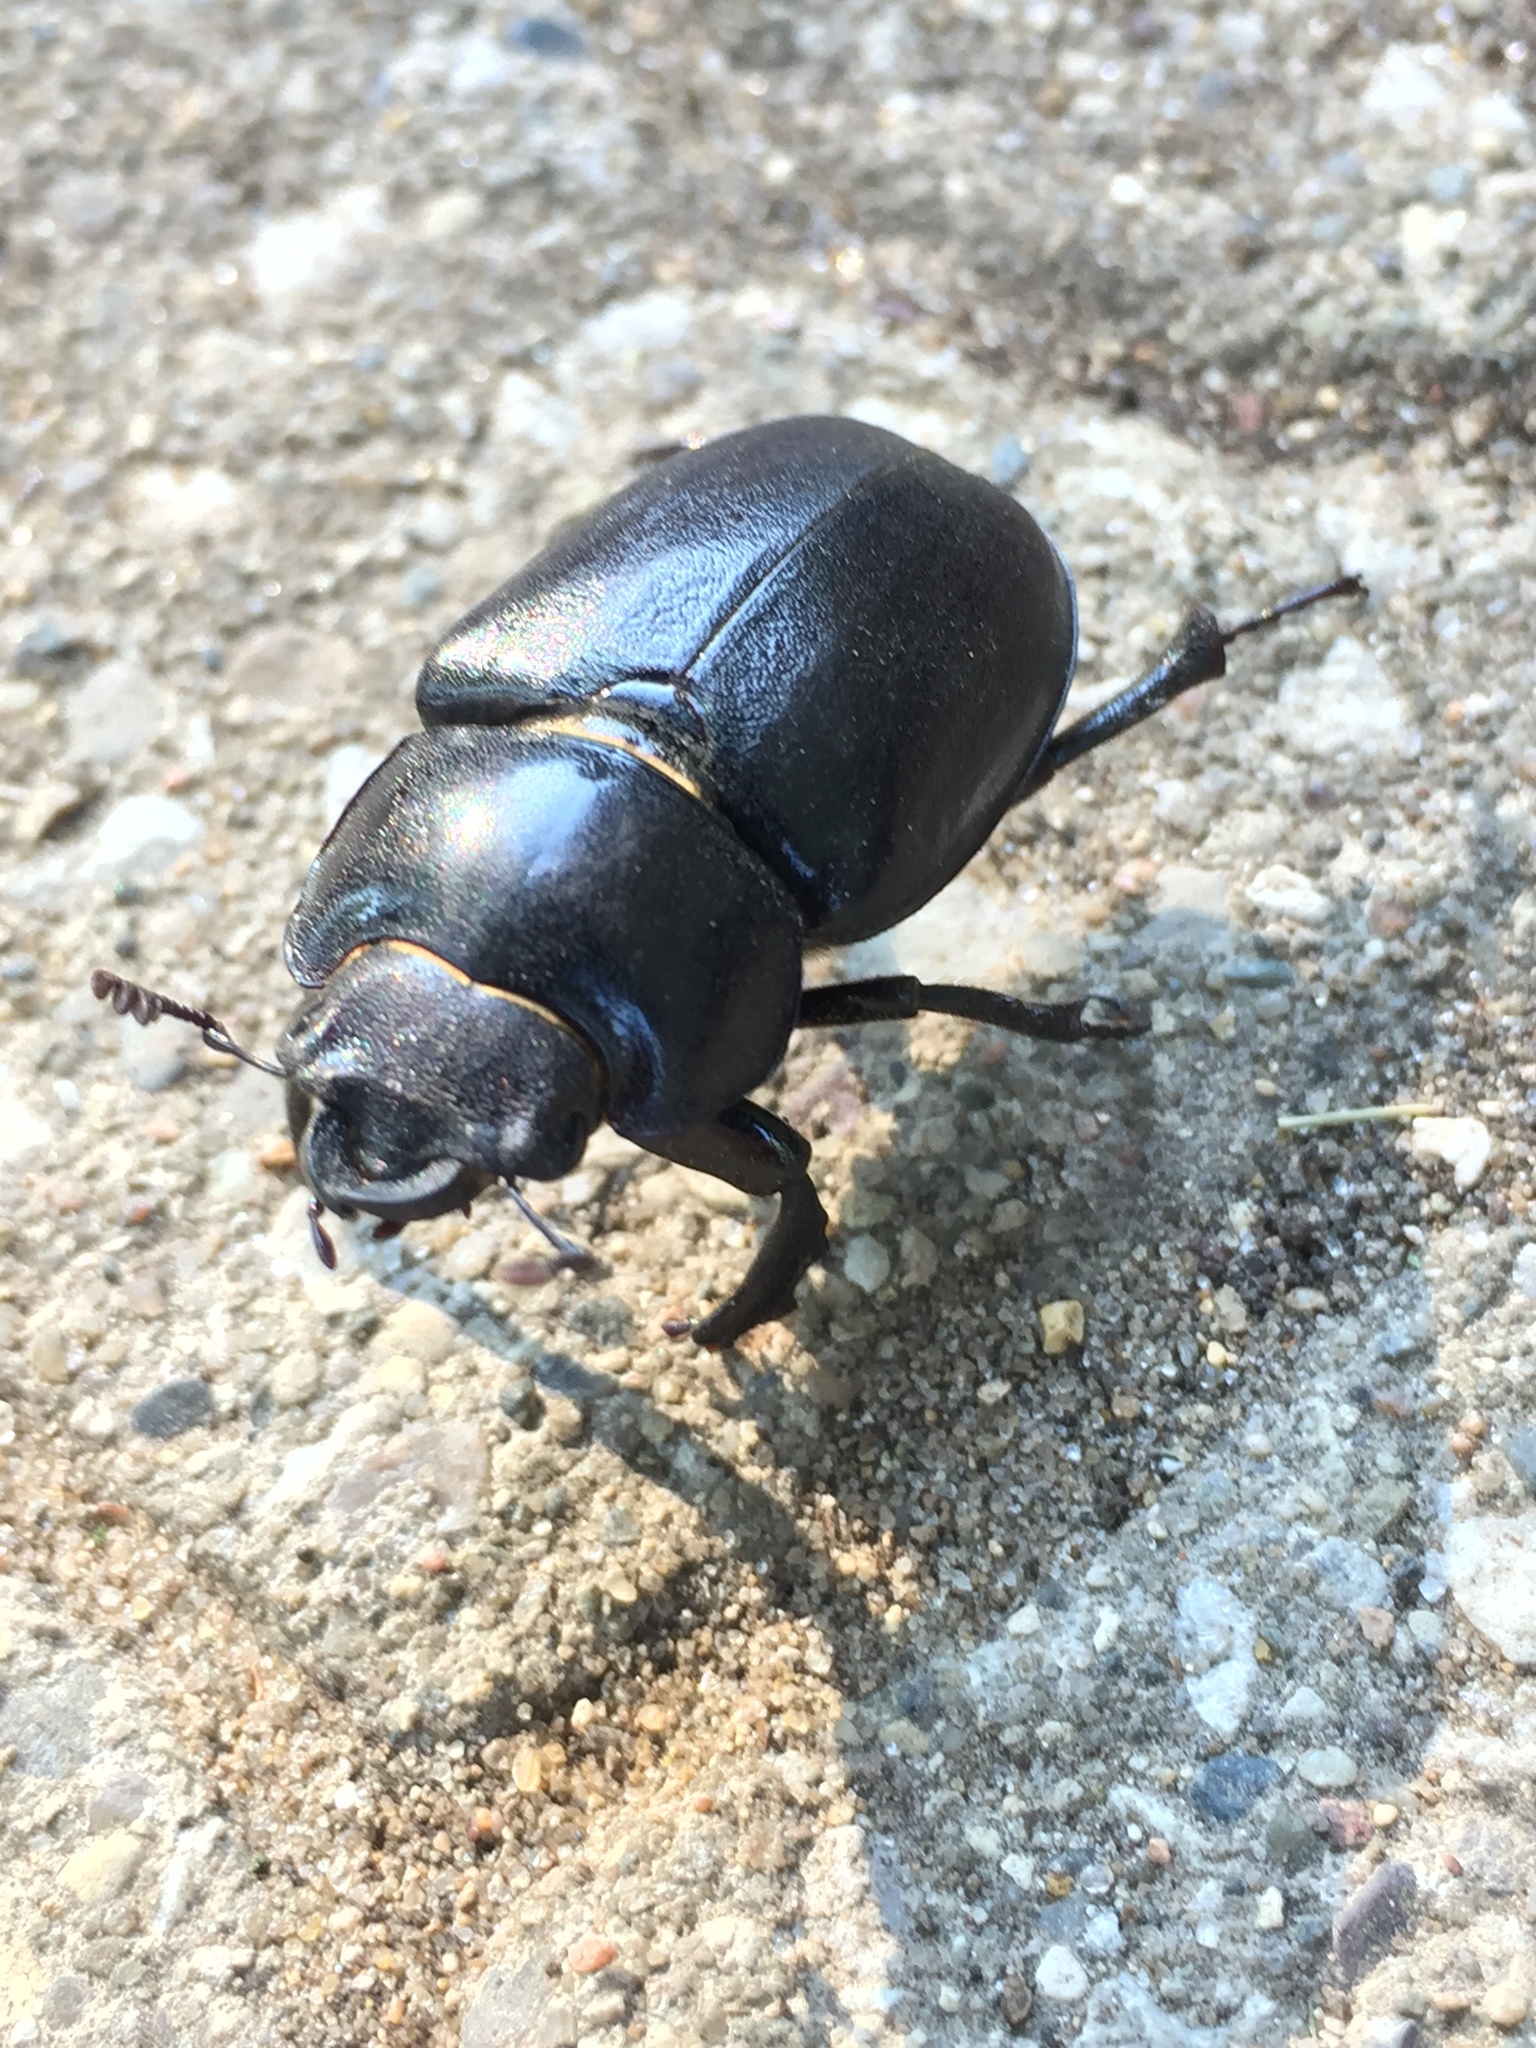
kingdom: Animalia
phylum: Arthropoda
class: Insecta
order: Coleoptera
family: Lucanidae
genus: Lucanus
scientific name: Lucanus placidus
